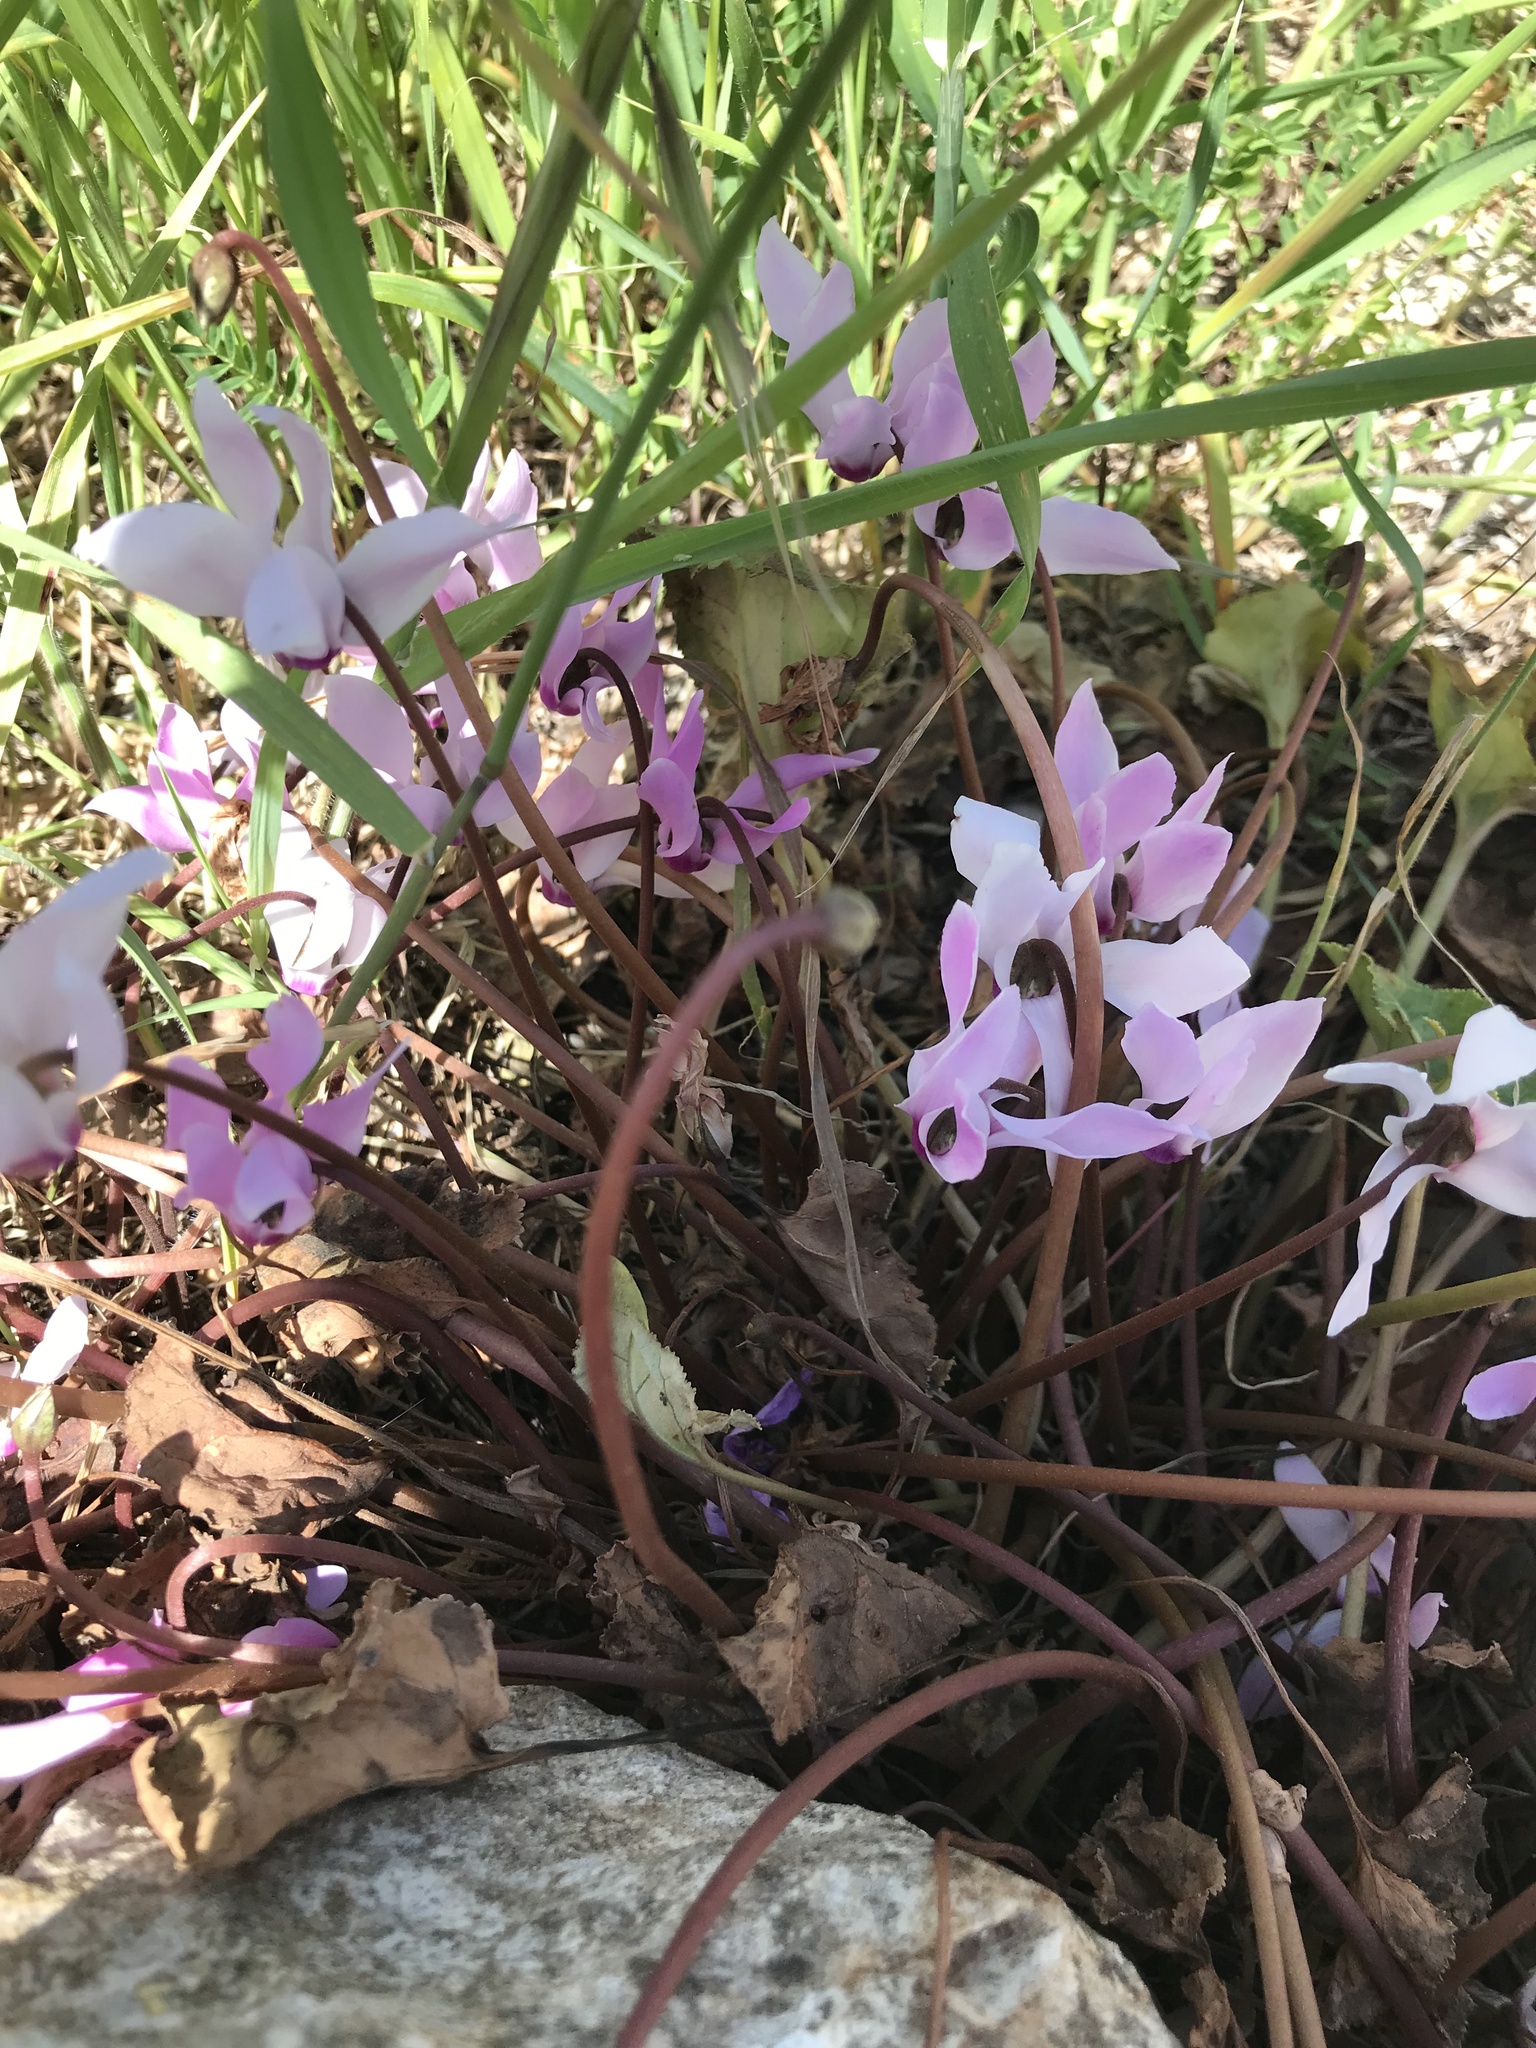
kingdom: Plantae
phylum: Tracheophyta
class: Magnoliopsida
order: Ericales
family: Primulaceae
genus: Cyclamen
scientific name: Cyclamen persicum
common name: Florist's cyclamen
